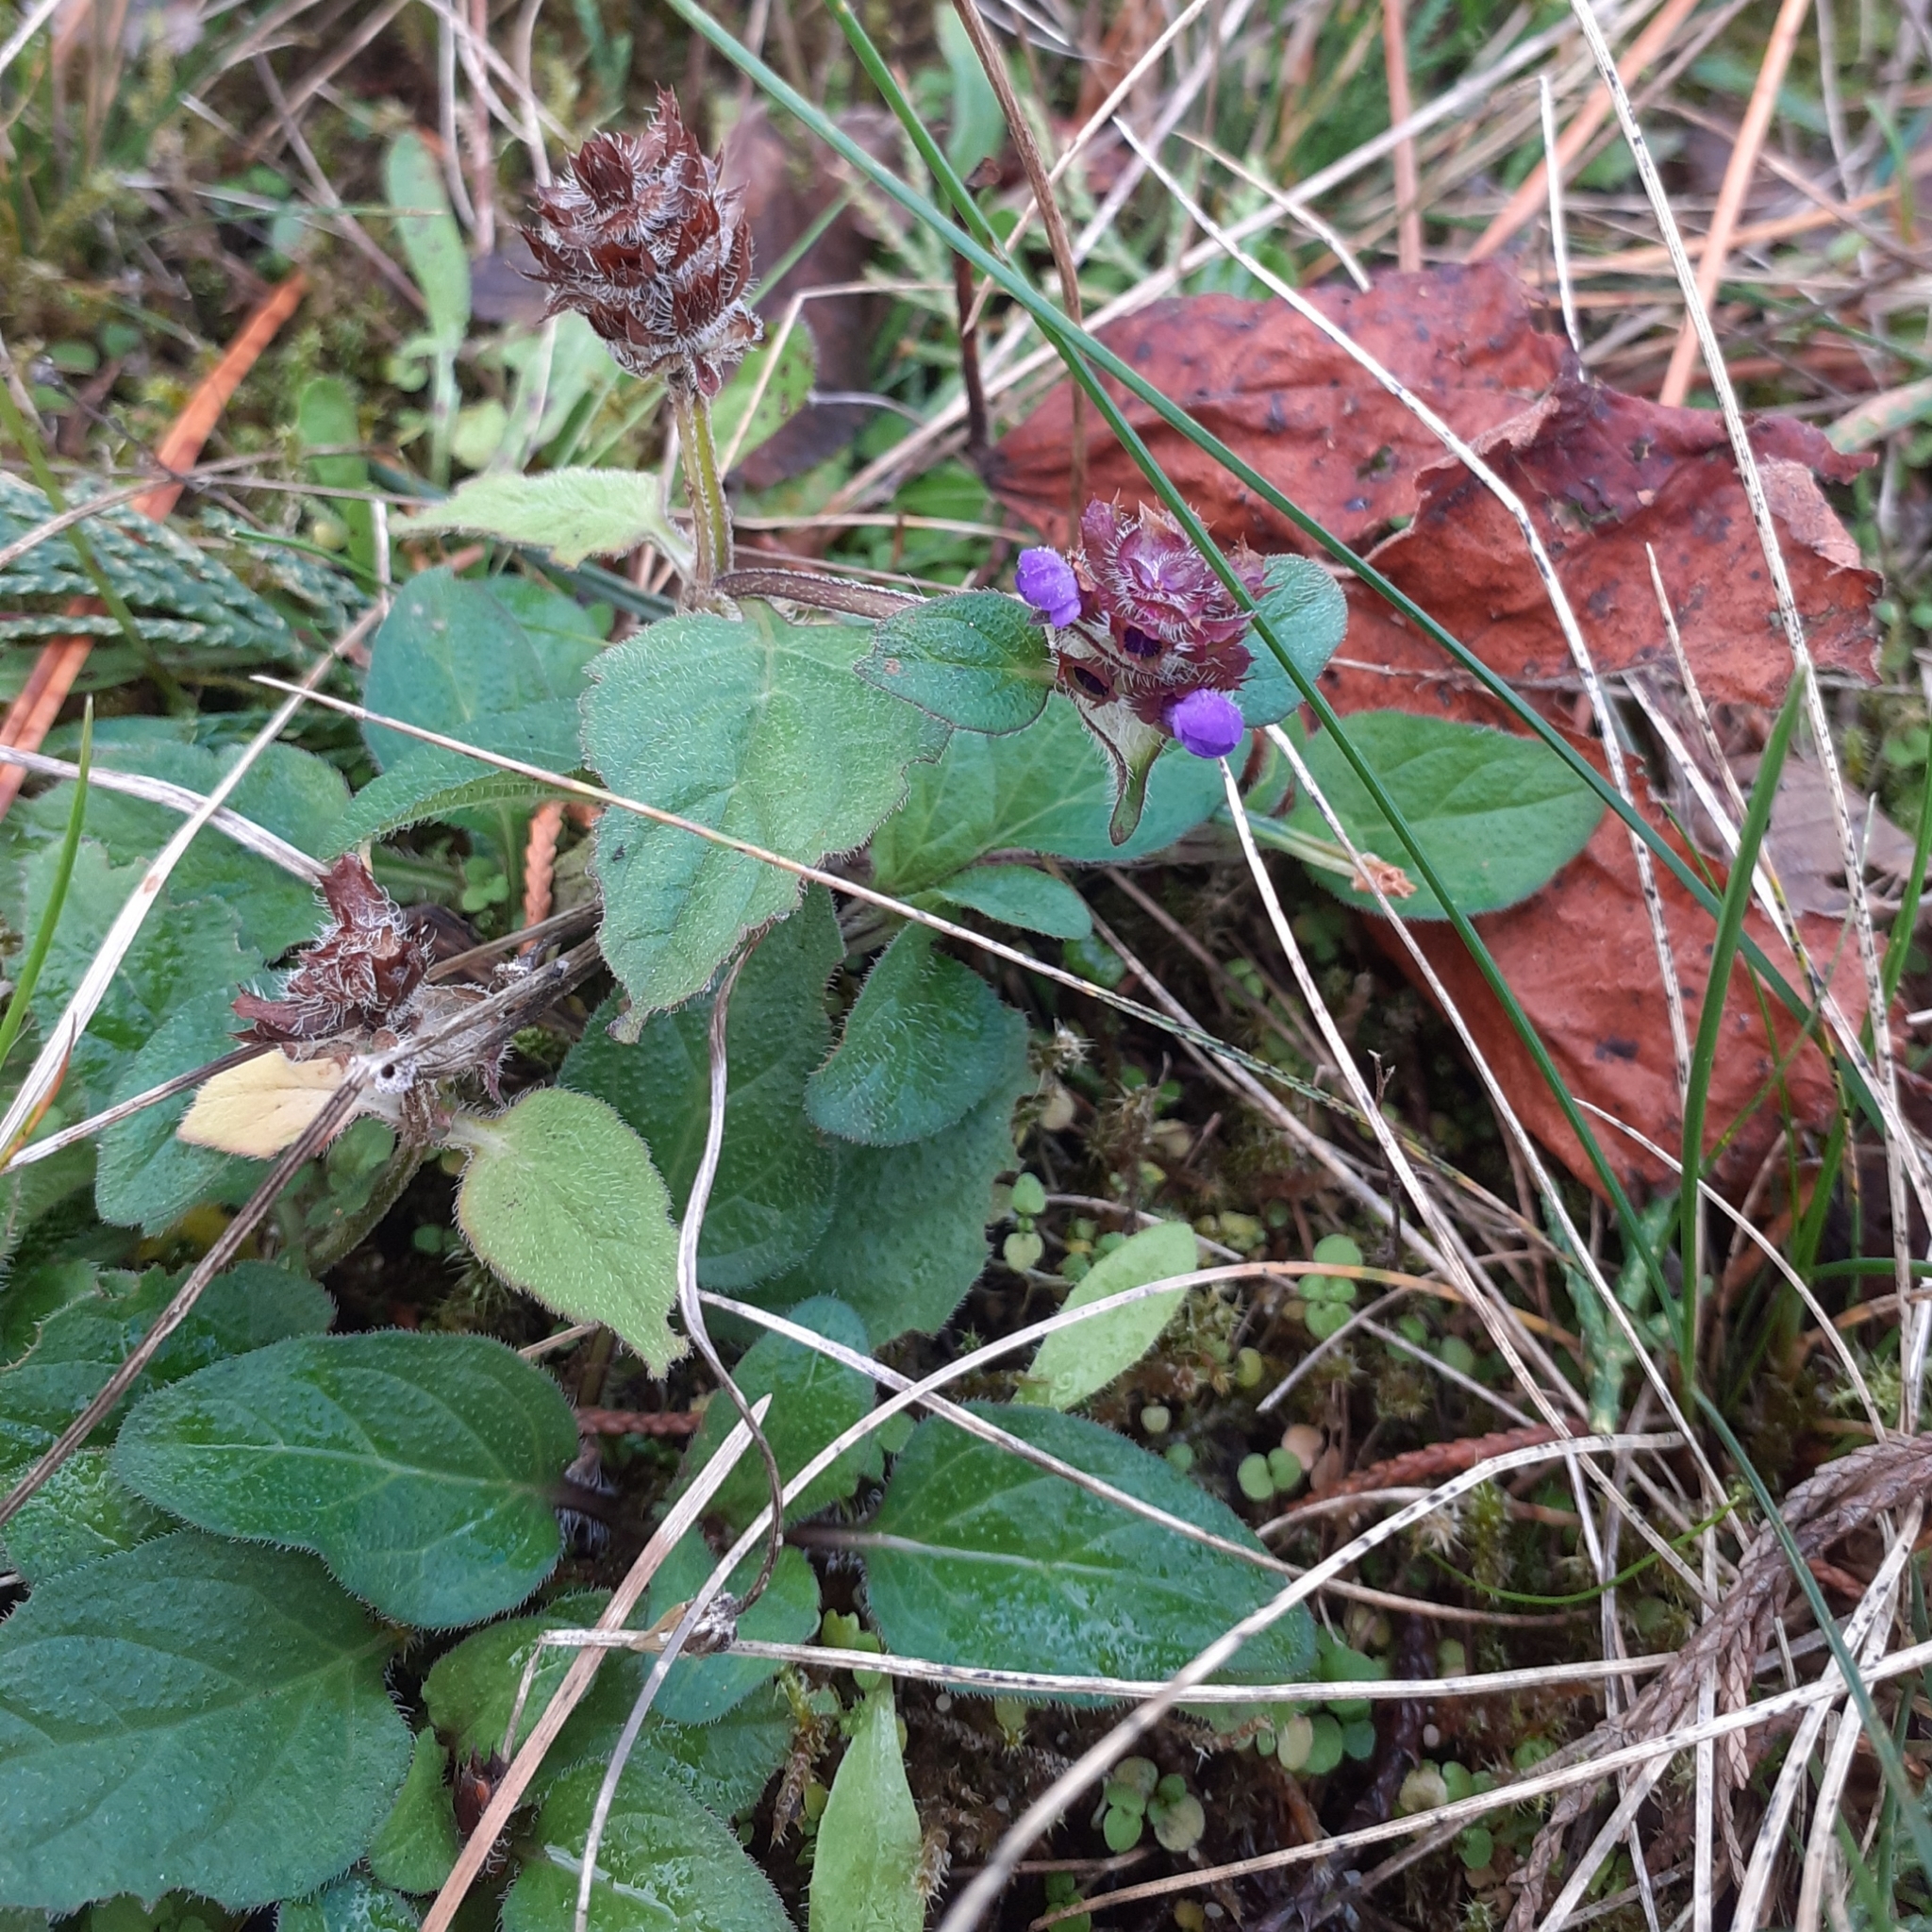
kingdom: Plantae
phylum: Tracheophyta
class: Magnoliopsida
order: Lamiales
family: Lamiaceae
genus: Prunella
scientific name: Prunella vulgaris
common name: Heal-all
